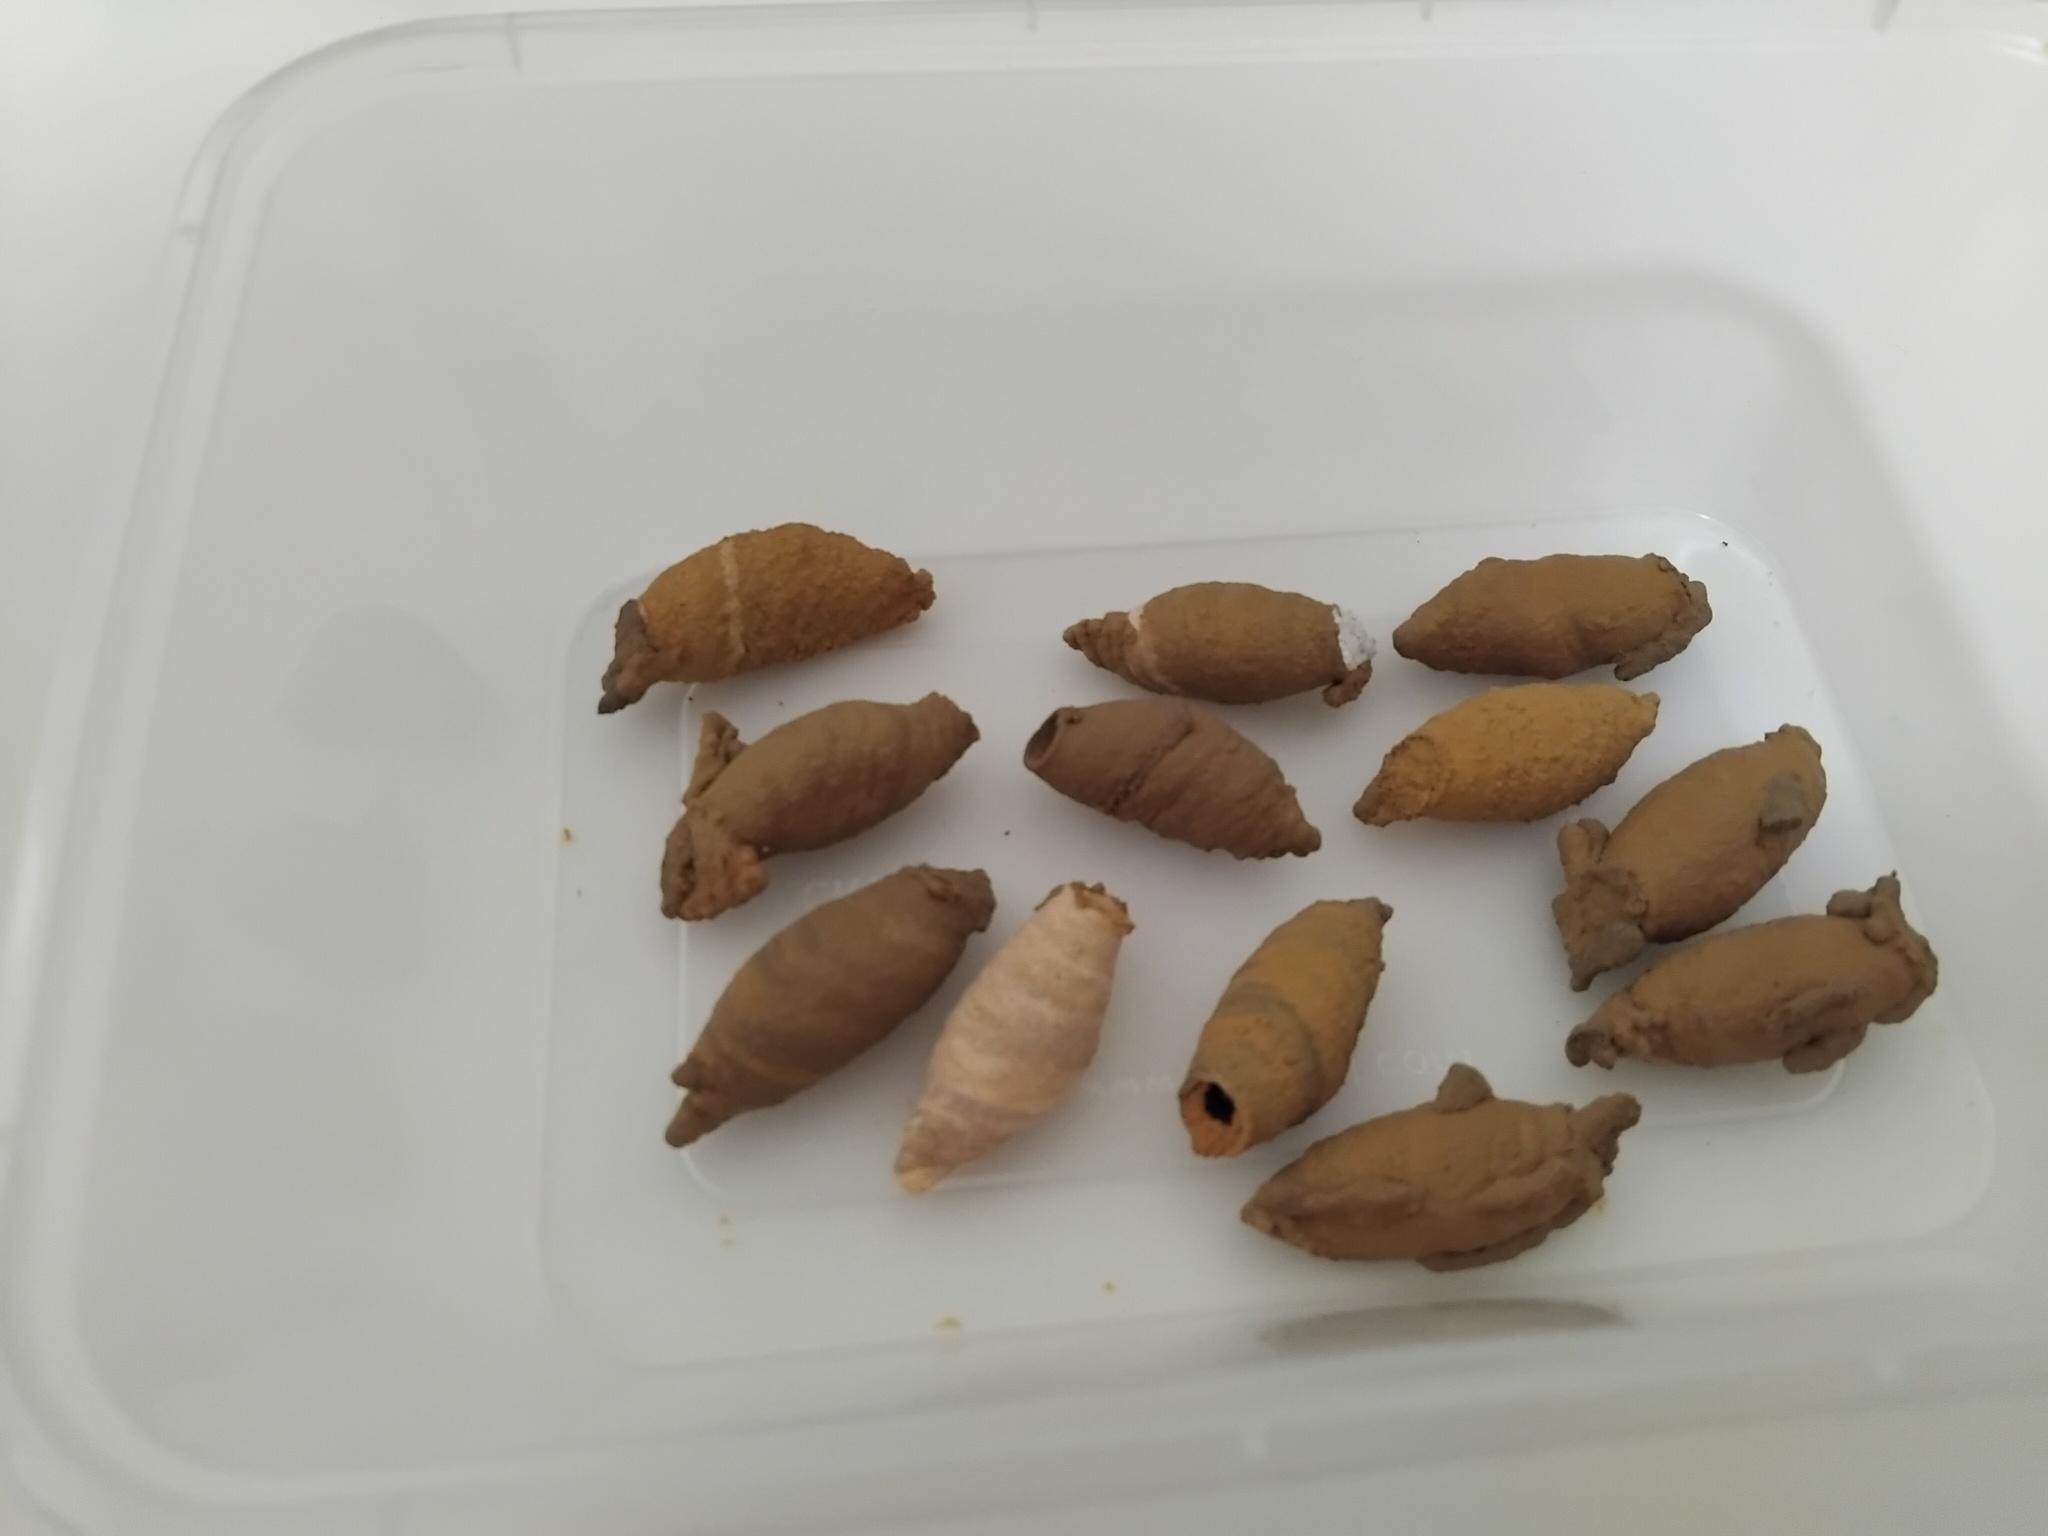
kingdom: Animalia
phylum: Arthropoda
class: Insecta
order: Hymenoptera
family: Sphecidae
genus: Sceliphron
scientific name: Sceliphron formosum
